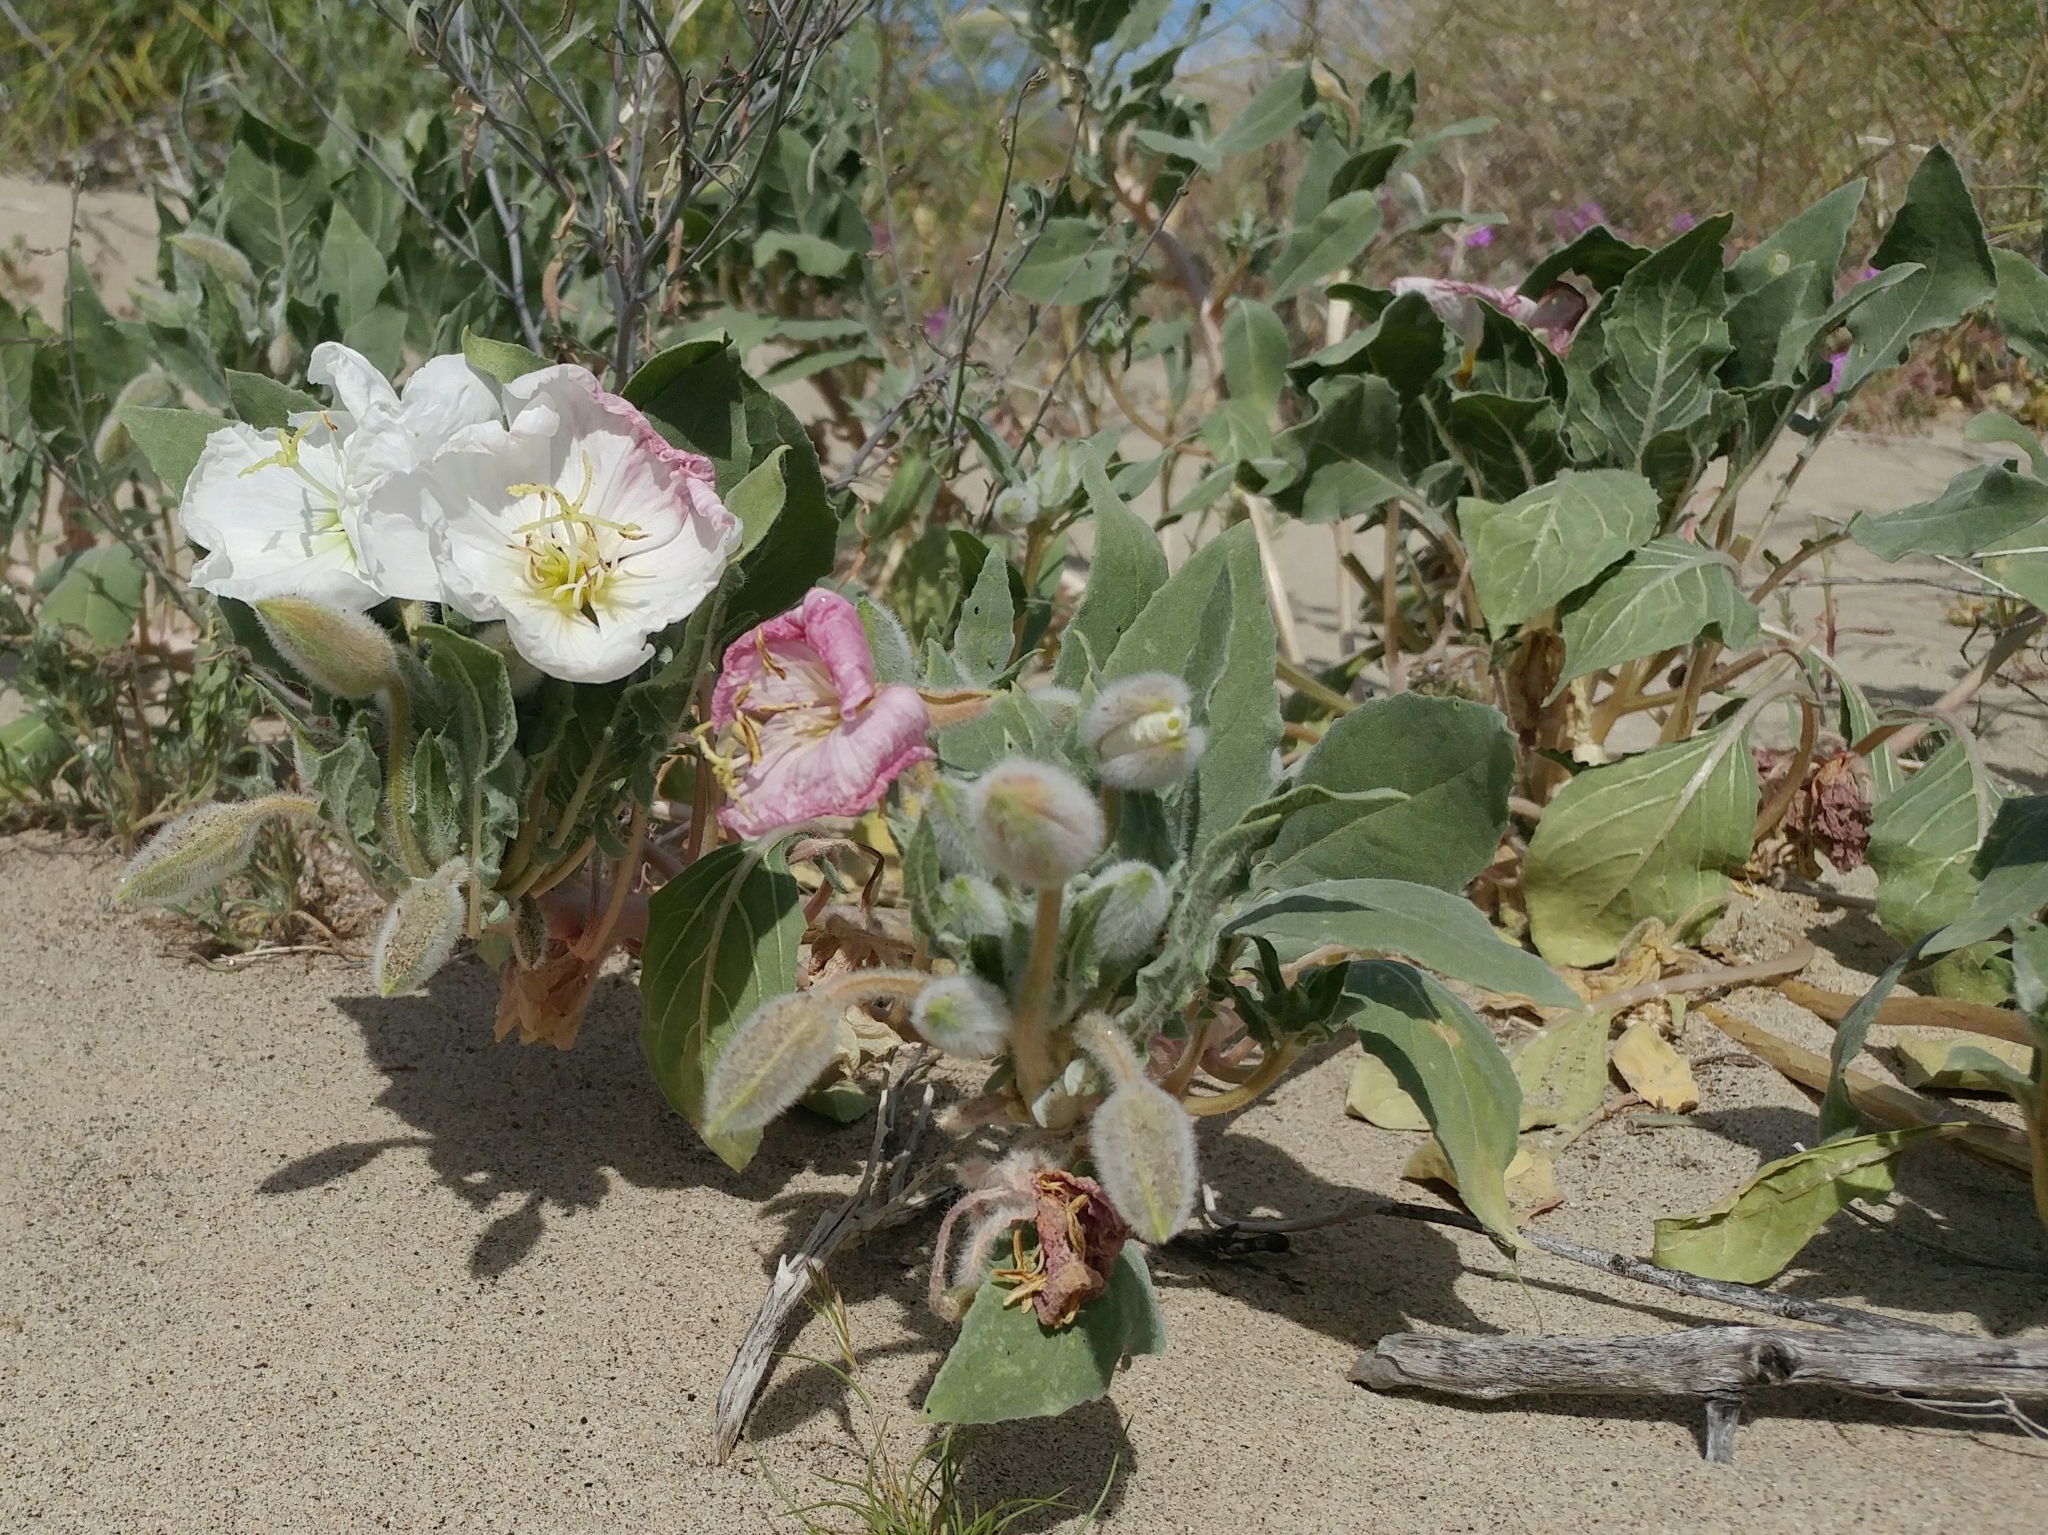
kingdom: Plantae
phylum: Tracheophyta
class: Magnoliopsida
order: Myrtales
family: Onagraceae
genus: Oenothera
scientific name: Oenothera deltoides
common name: Basket evening-primrose
